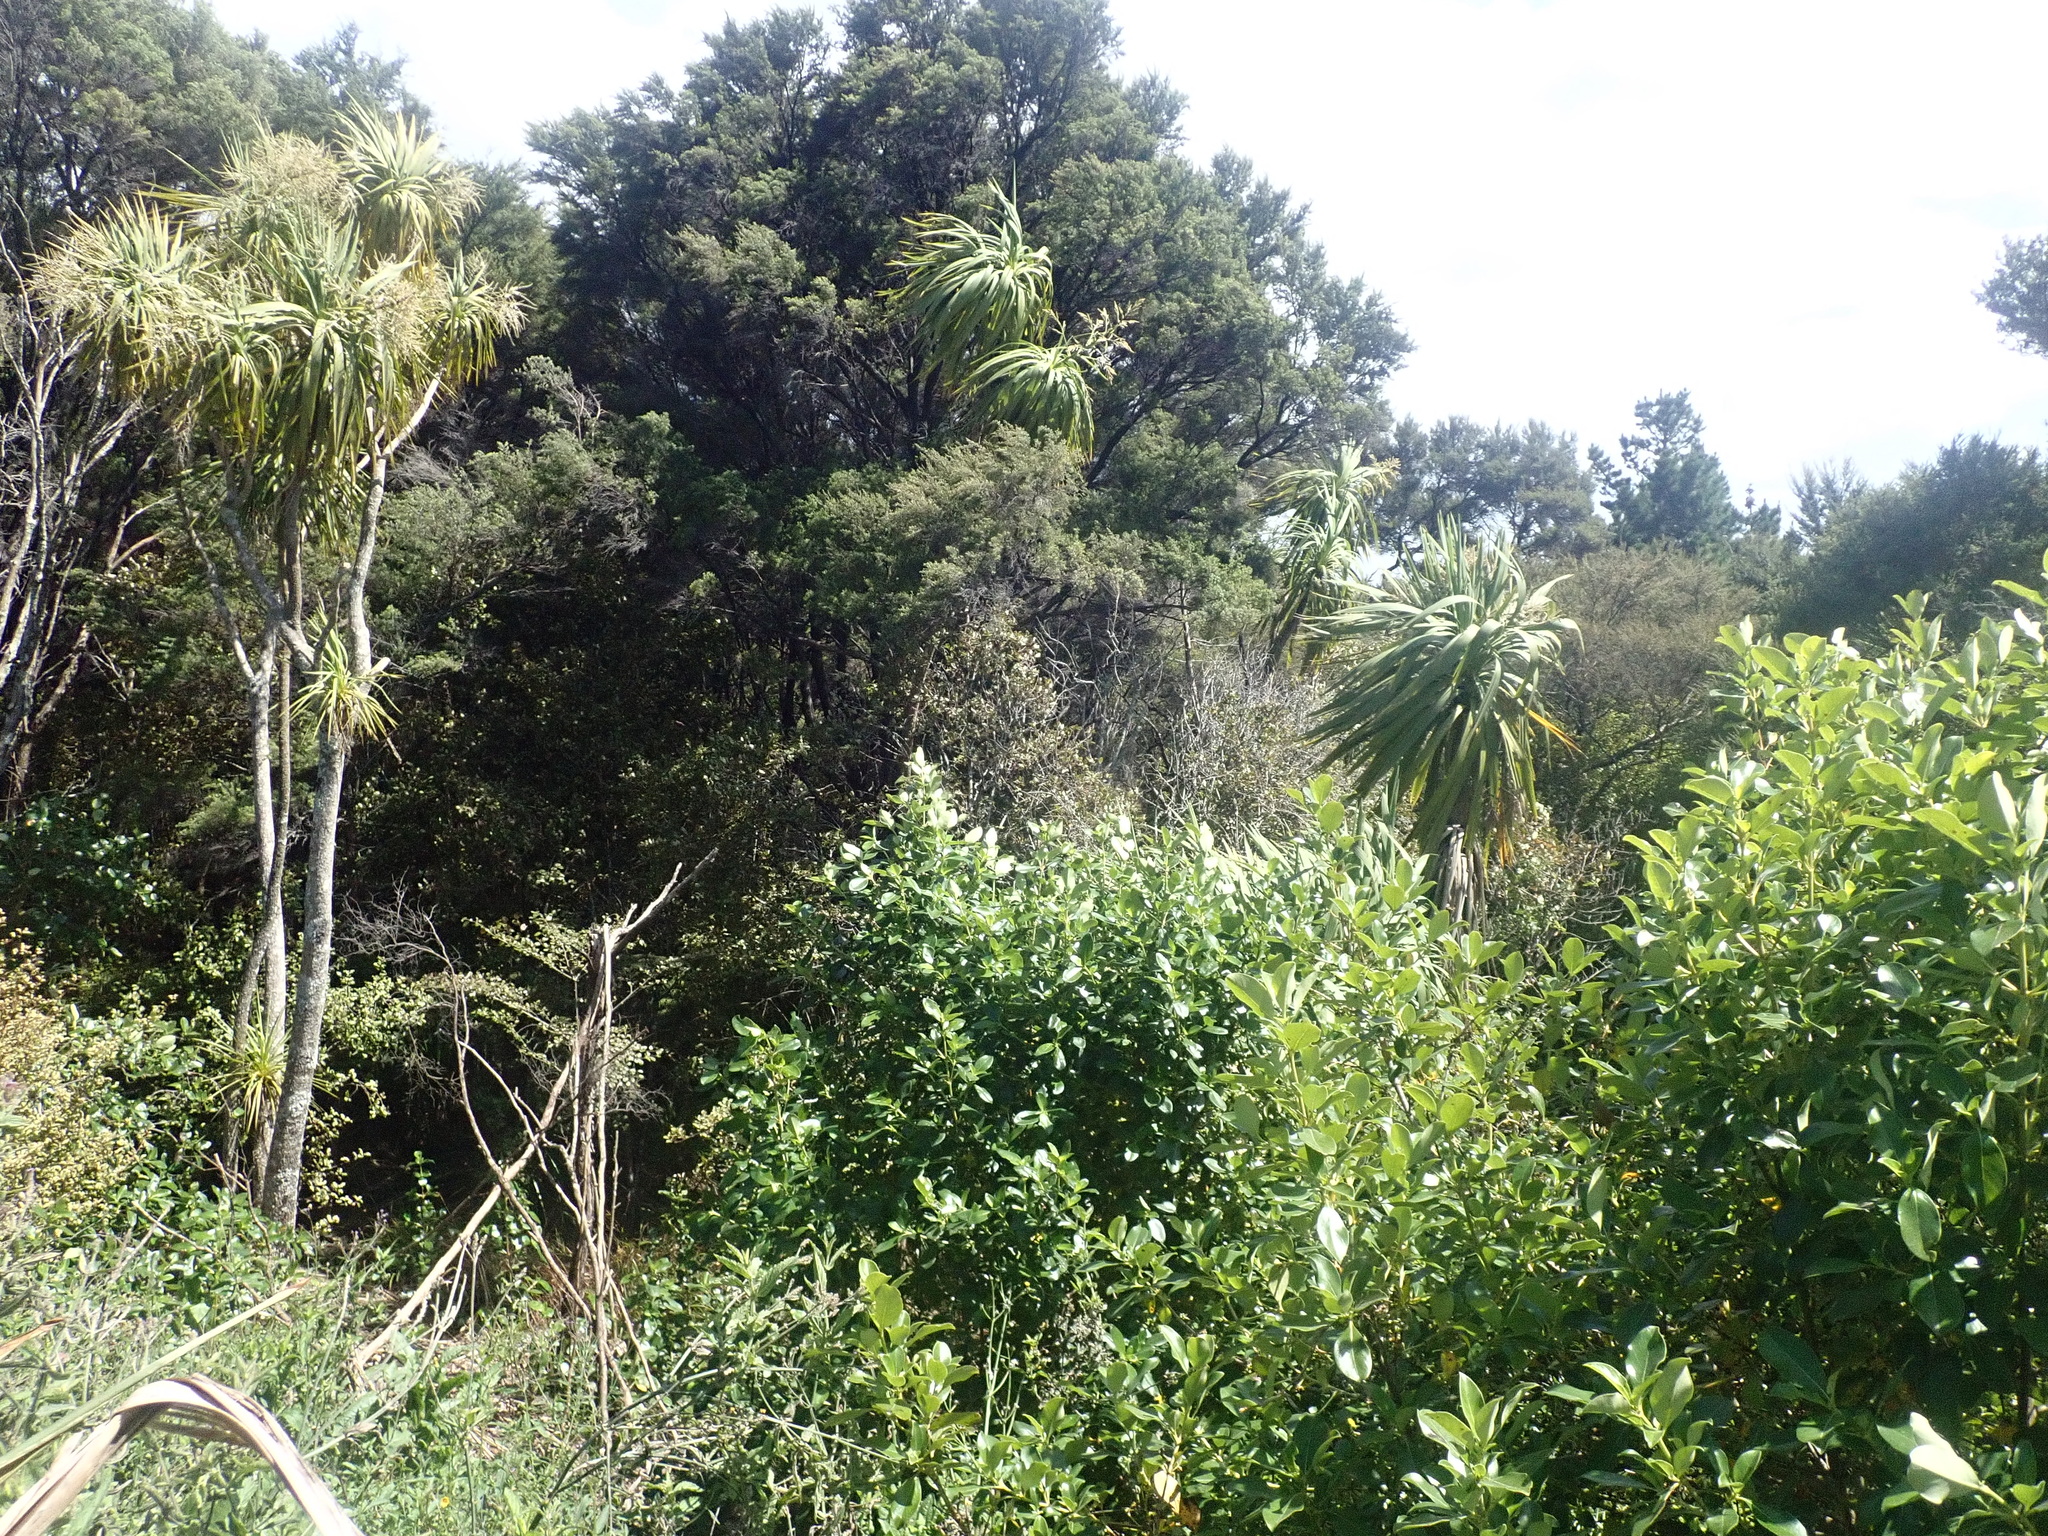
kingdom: Plantae
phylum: Tracheophyta
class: Liliopsida
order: Asparagales
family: Asparagaceae
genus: Cordyline
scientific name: Cordyline australis
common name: Cabbage-palm
